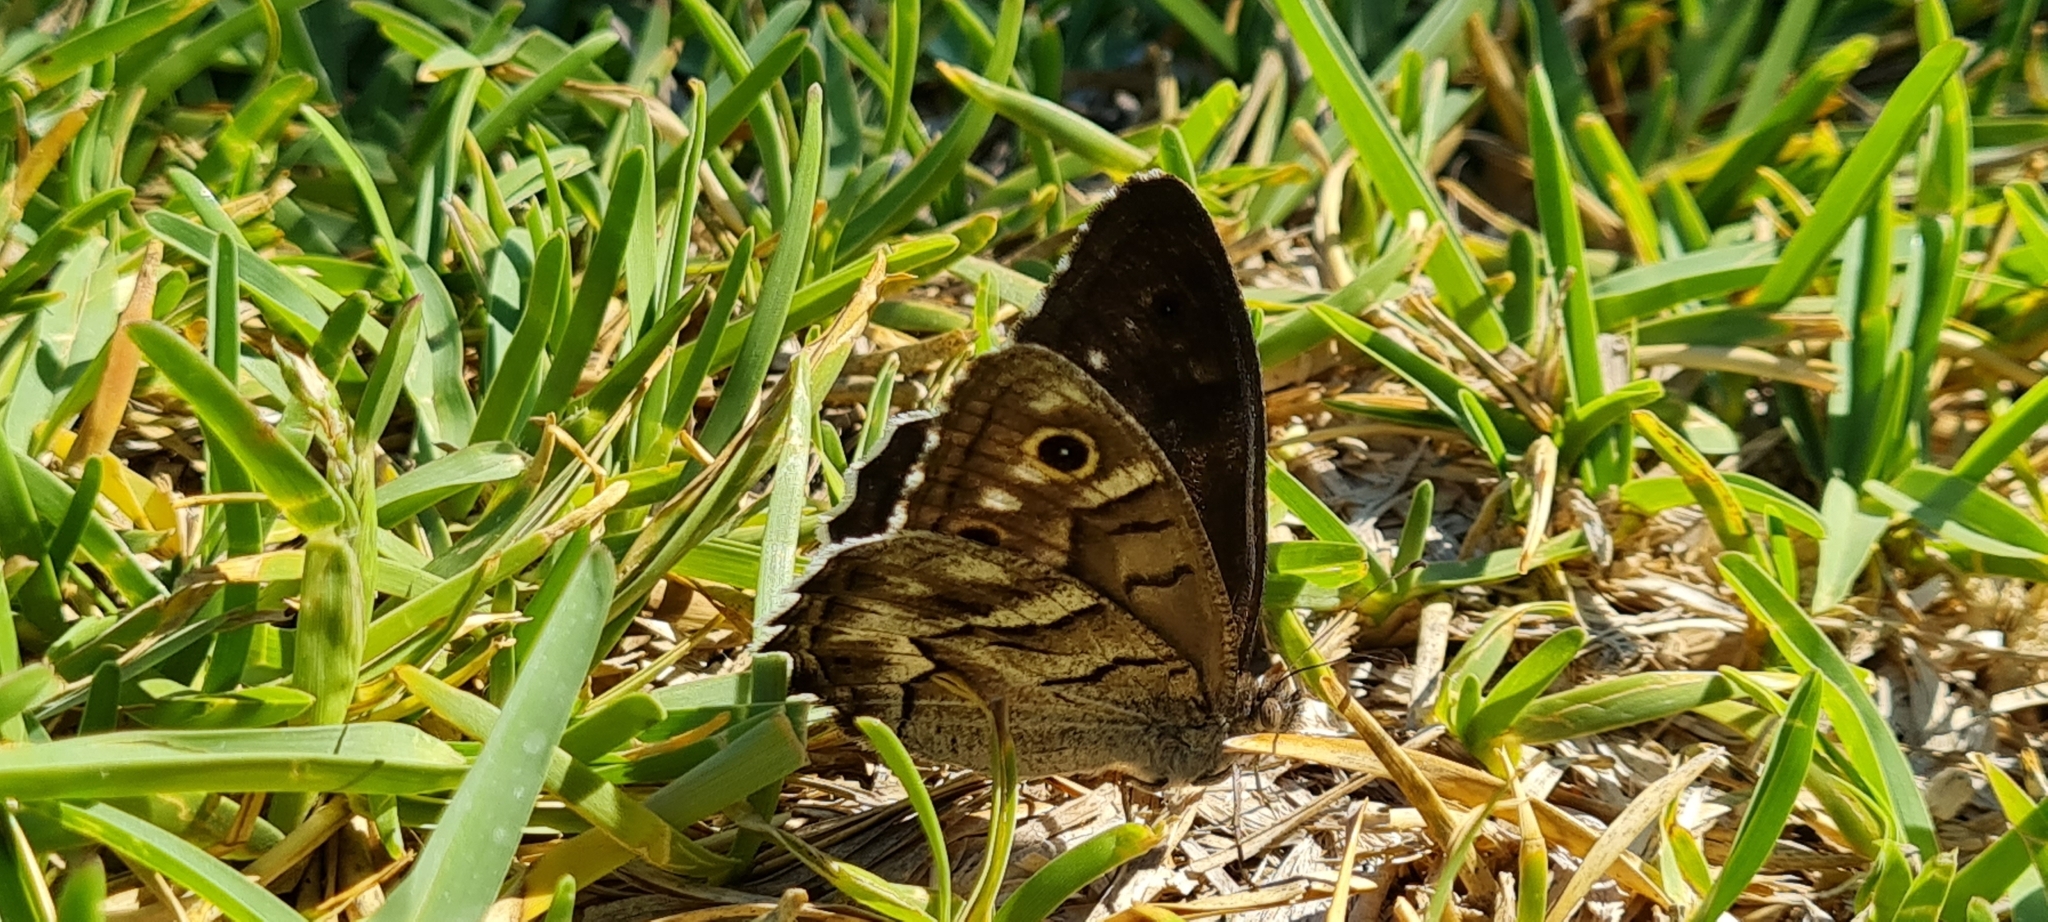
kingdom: Animalia
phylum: Arthropoda
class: Insecta
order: Lepidoptera
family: Nymphalidae
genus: Hipparchia
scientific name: Hipparchia fidia
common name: Striped grayling
